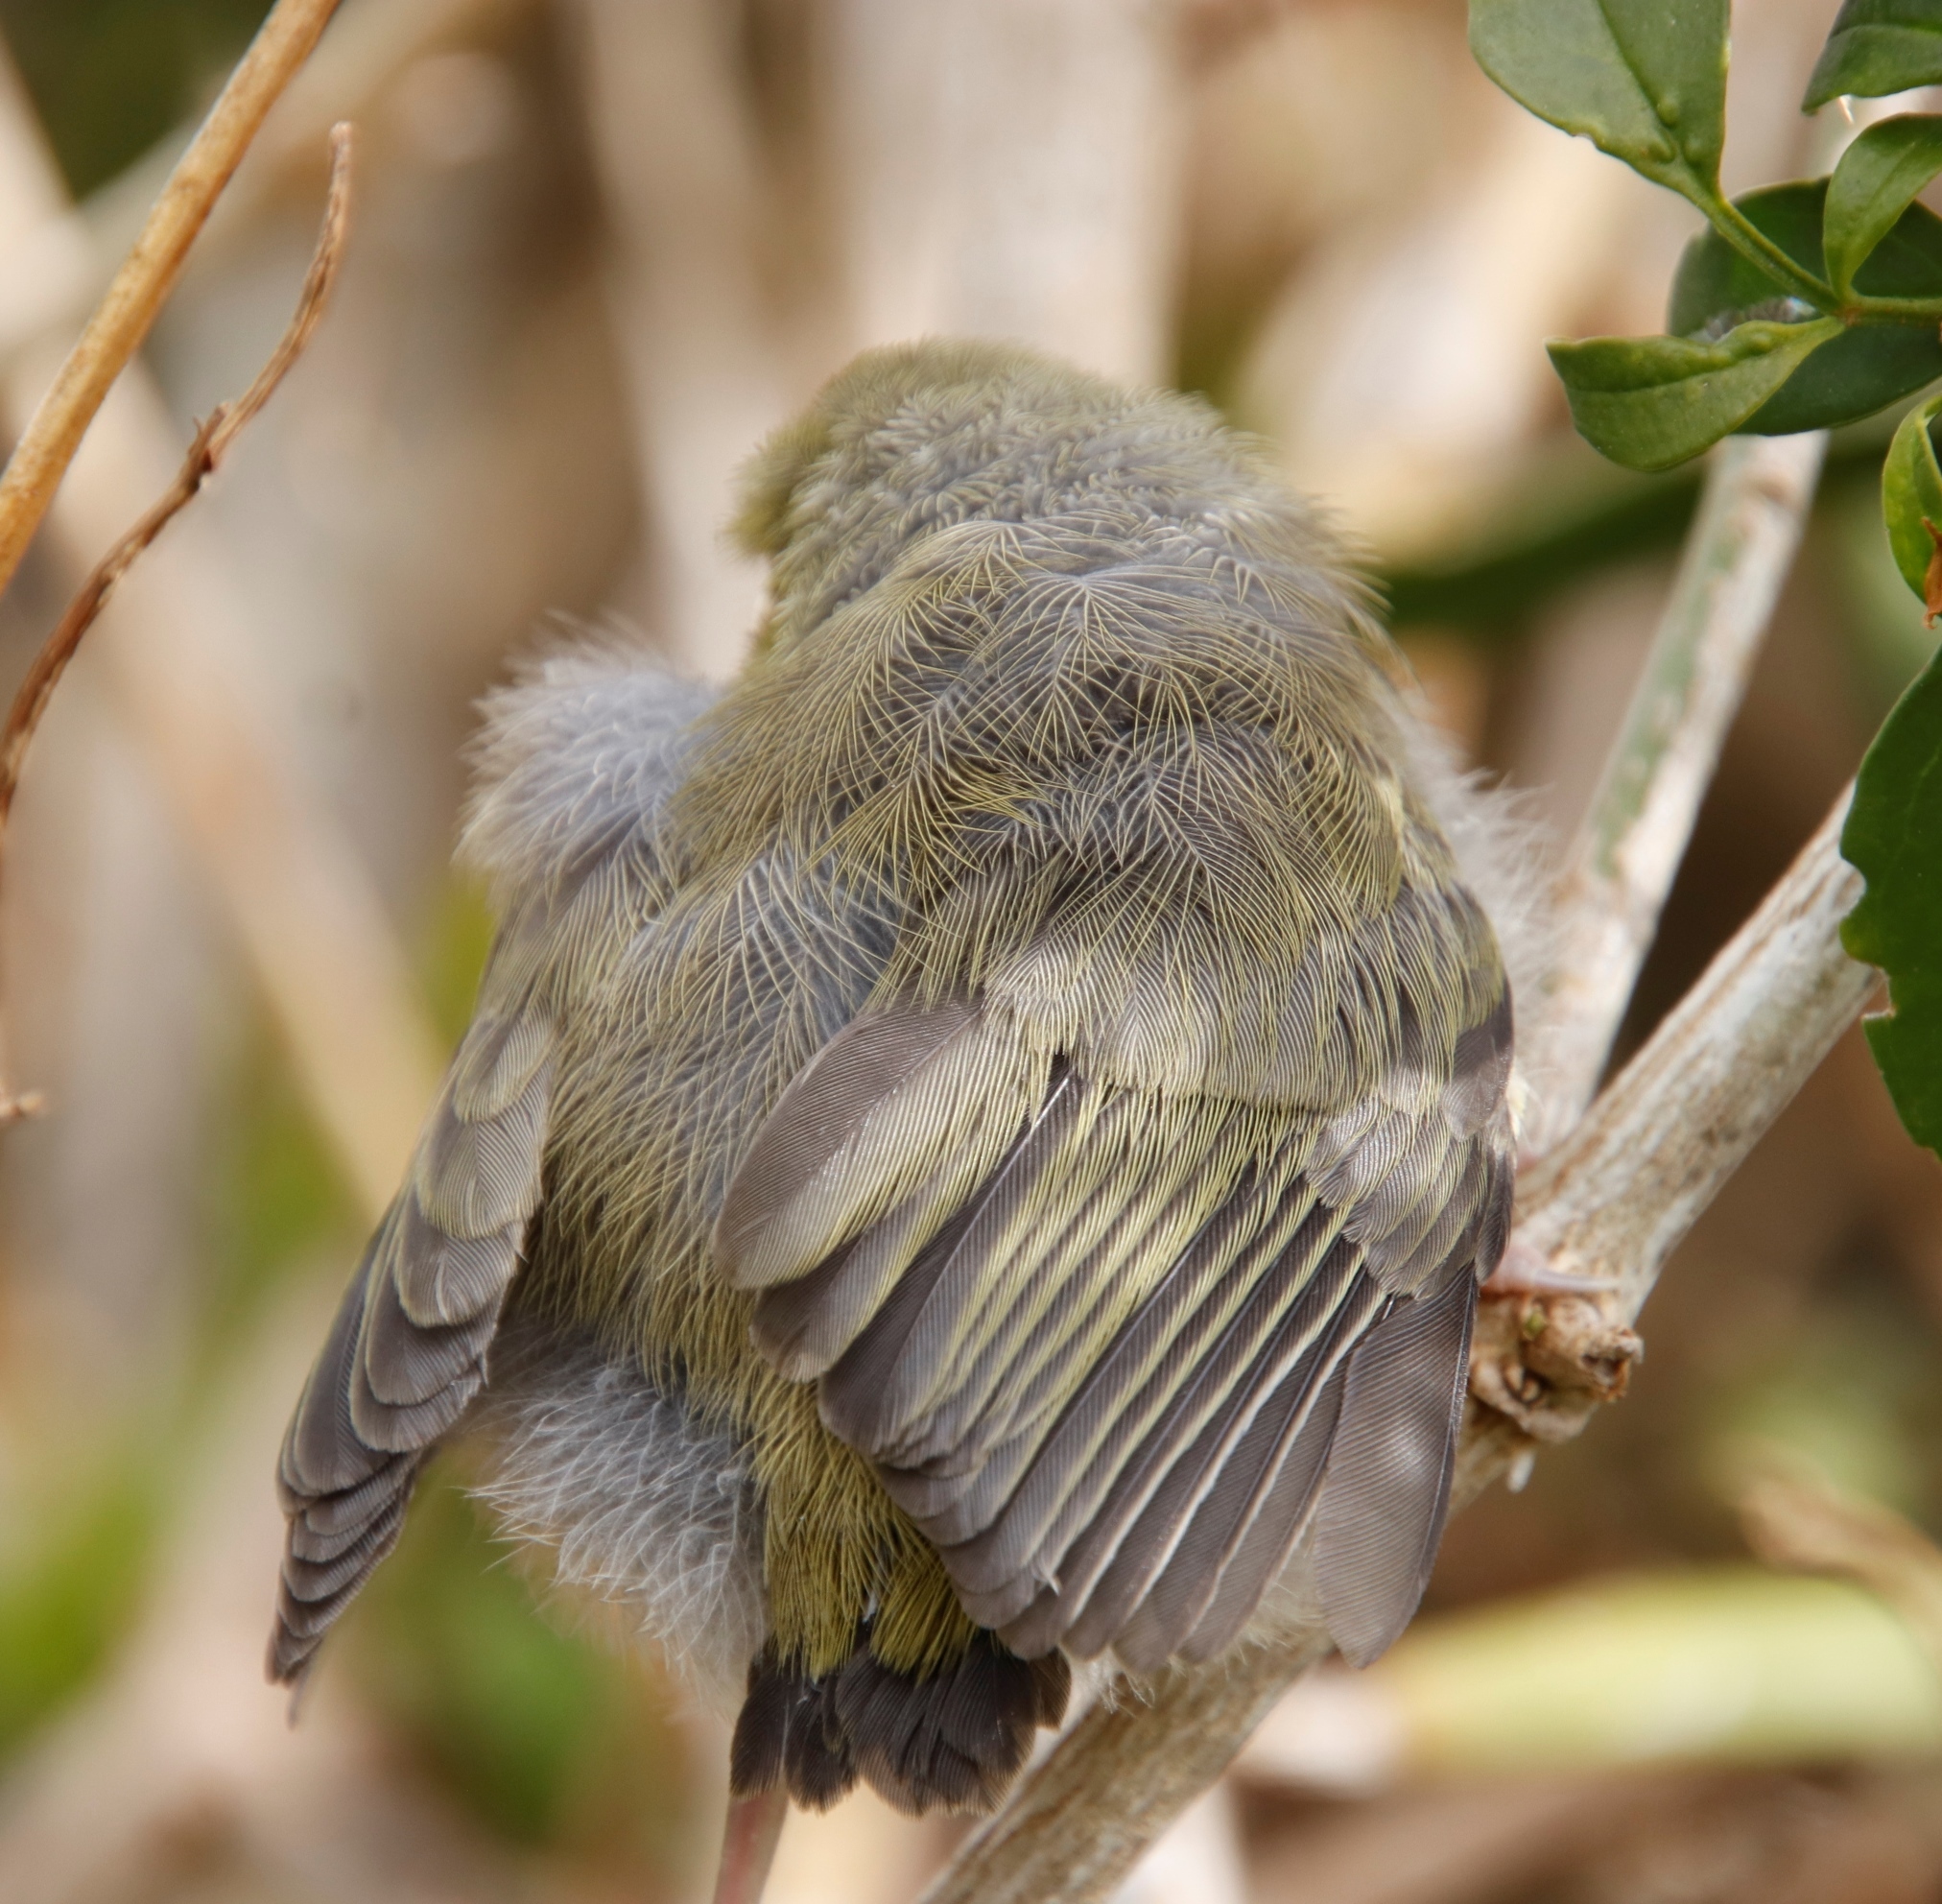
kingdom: Animalia
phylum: Chordata
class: Aves
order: Passeriformes
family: Zosteropidae
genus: Zosterops
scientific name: Zosterops virens
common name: Cape white-eye
